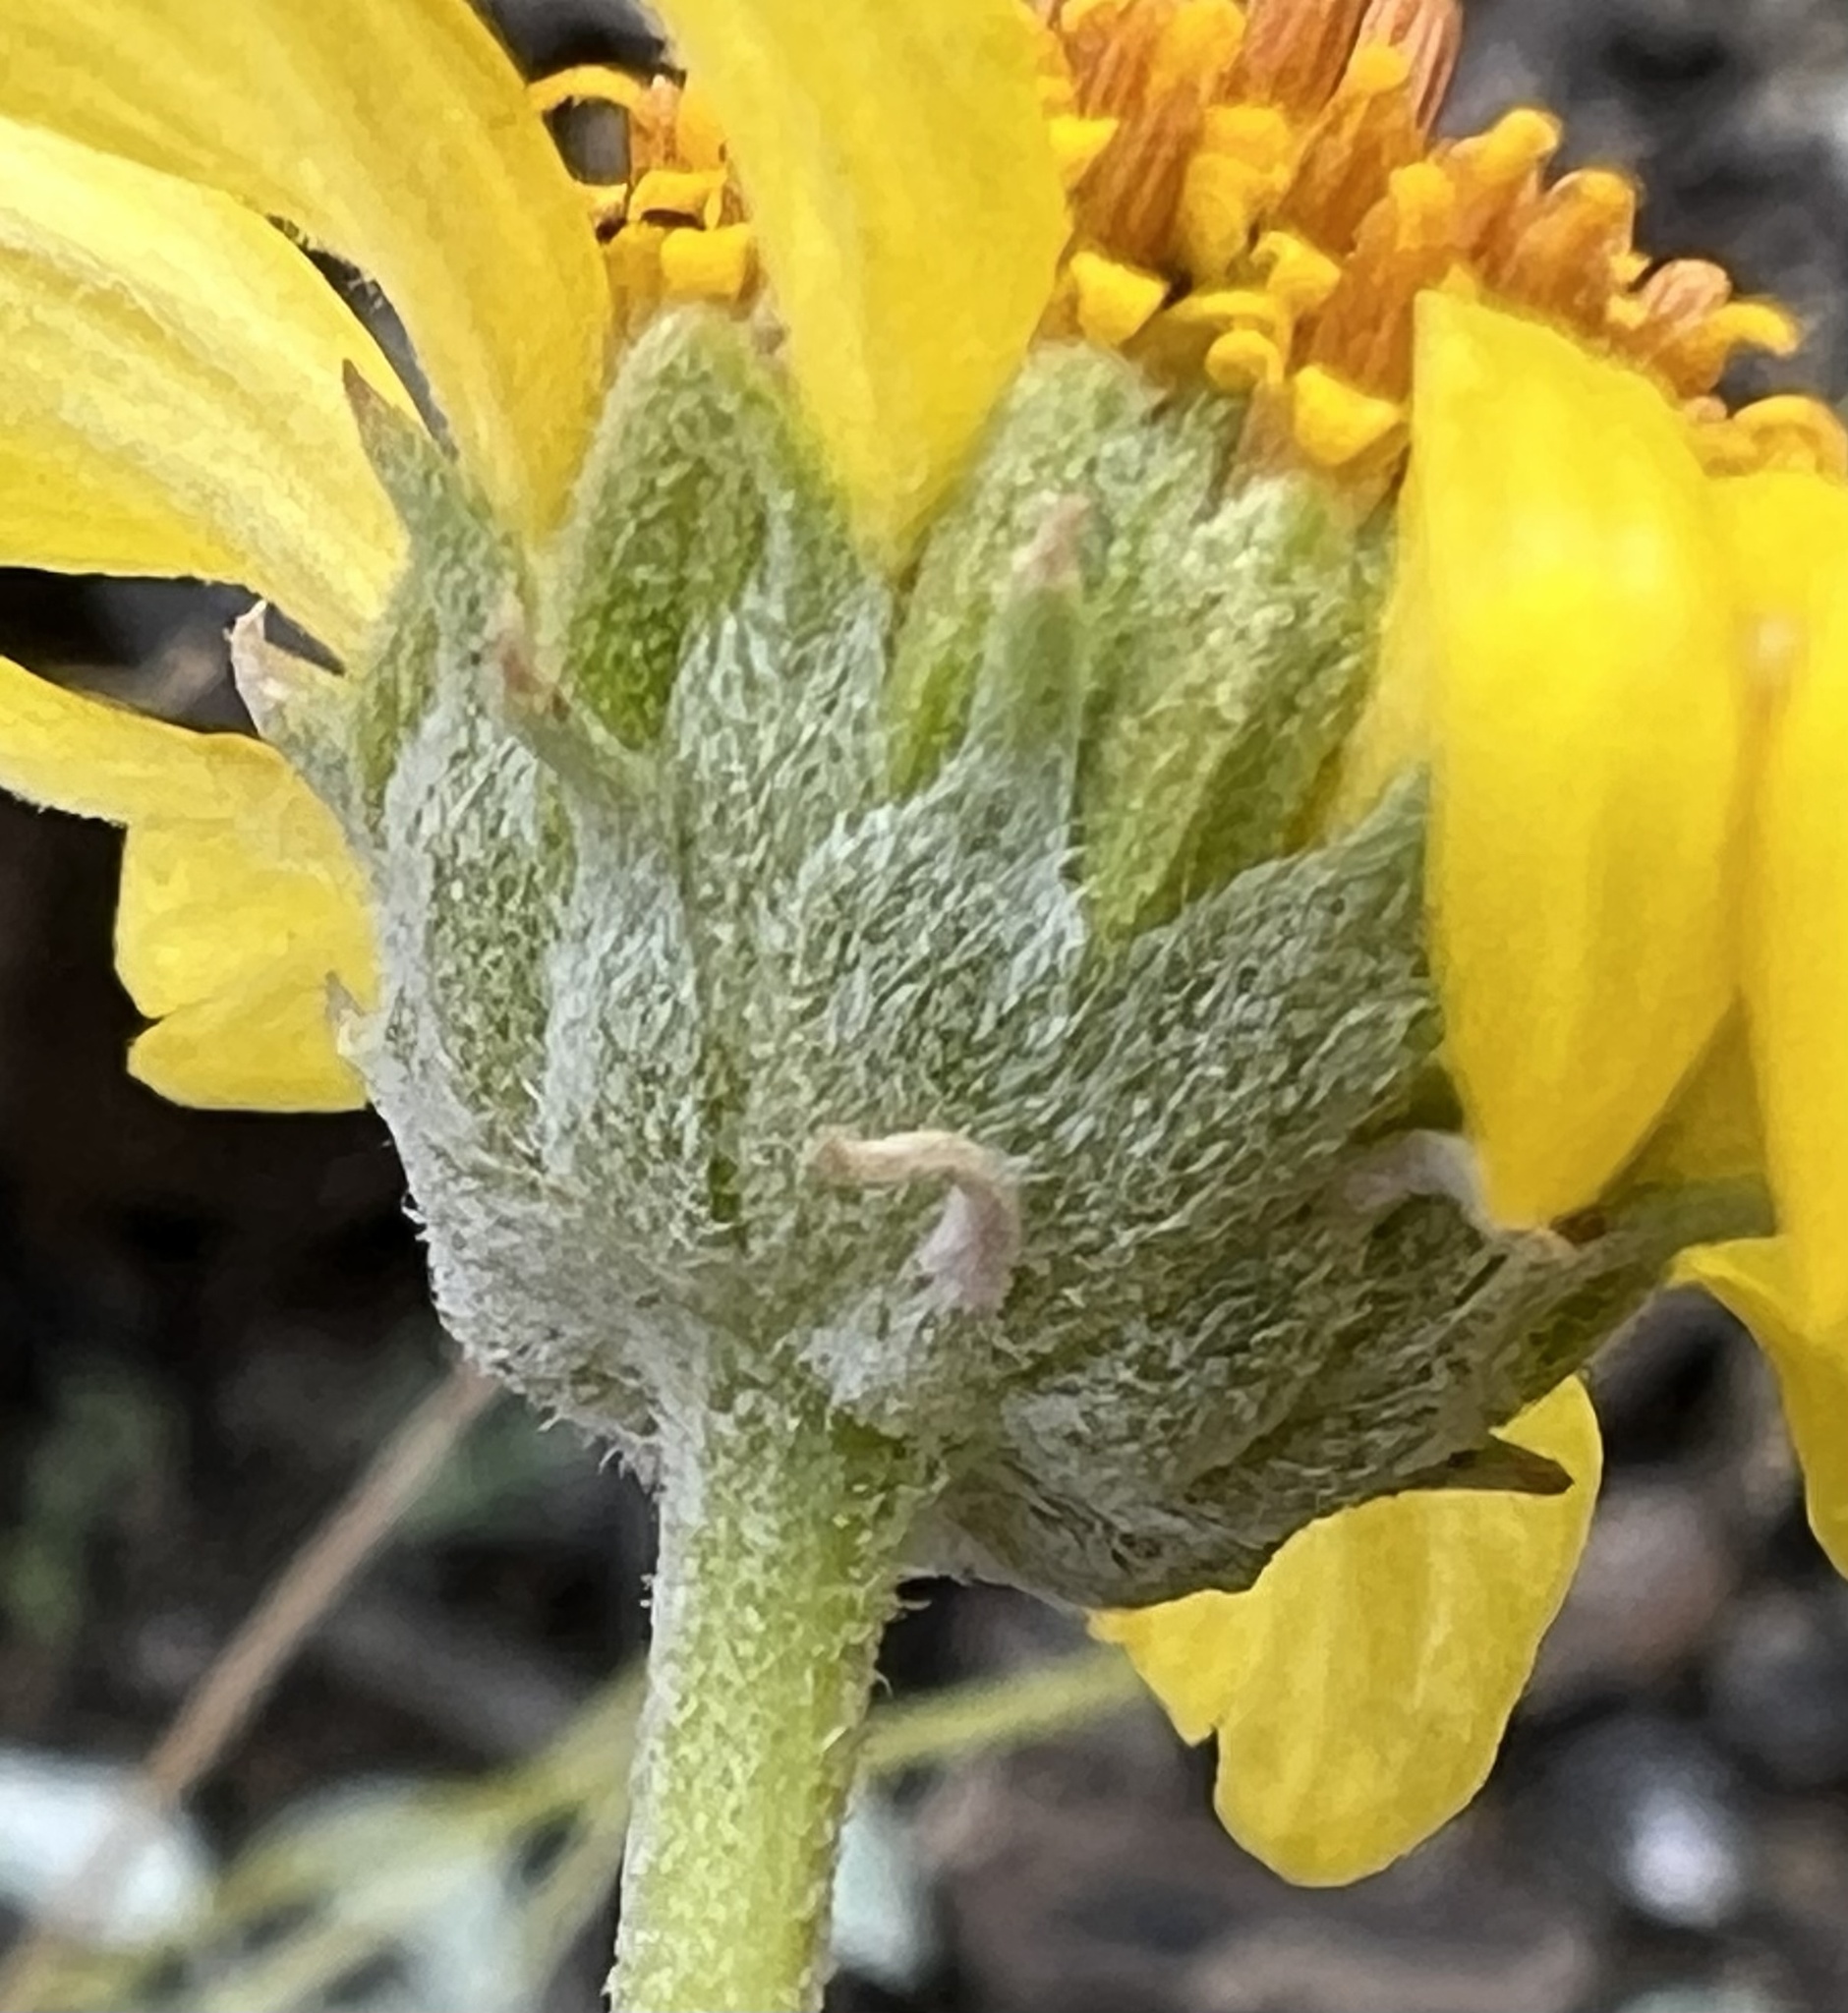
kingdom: Plantae
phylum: Tracheophyta
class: Magnoliopsida
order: Asterales
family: Asteraceae
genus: Encelia
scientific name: Encelia actoni
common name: Acton encelia
